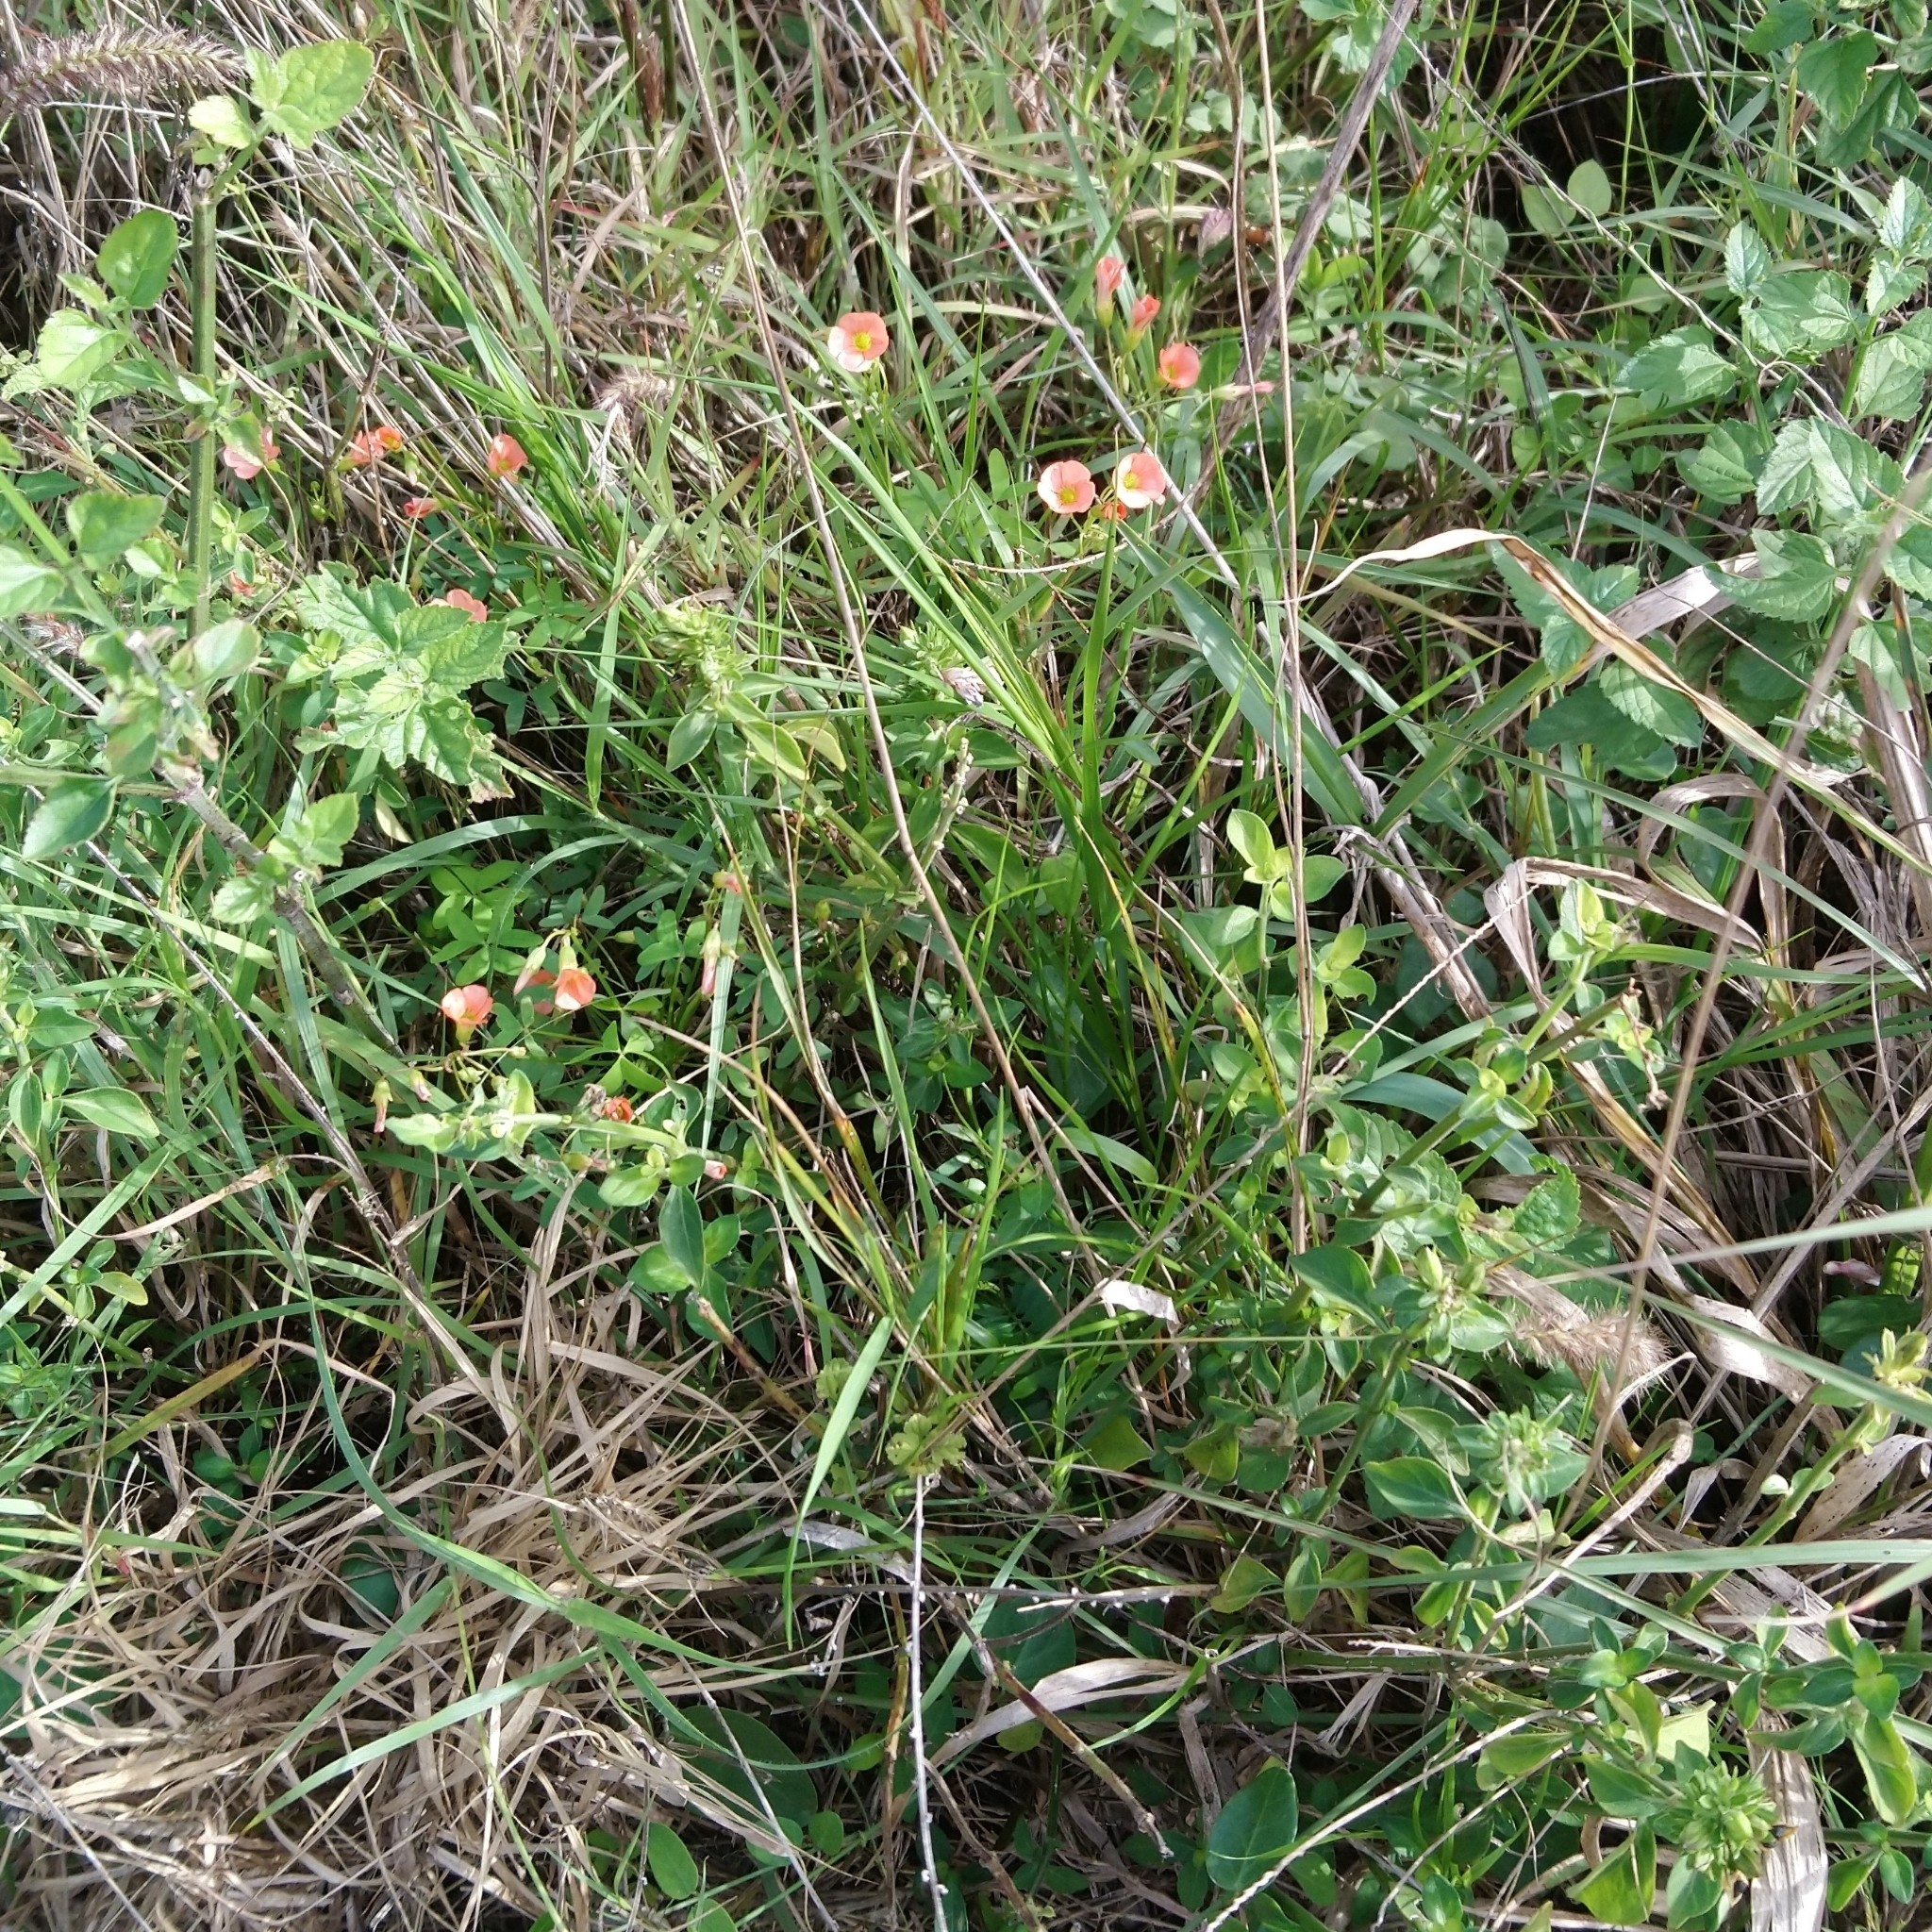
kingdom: Plantae
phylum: Tracheophyta
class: Magnoliopsida
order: Oxalidales
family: Oxalidaceae
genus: Oxalis
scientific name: Oxalis stenorhyncha
